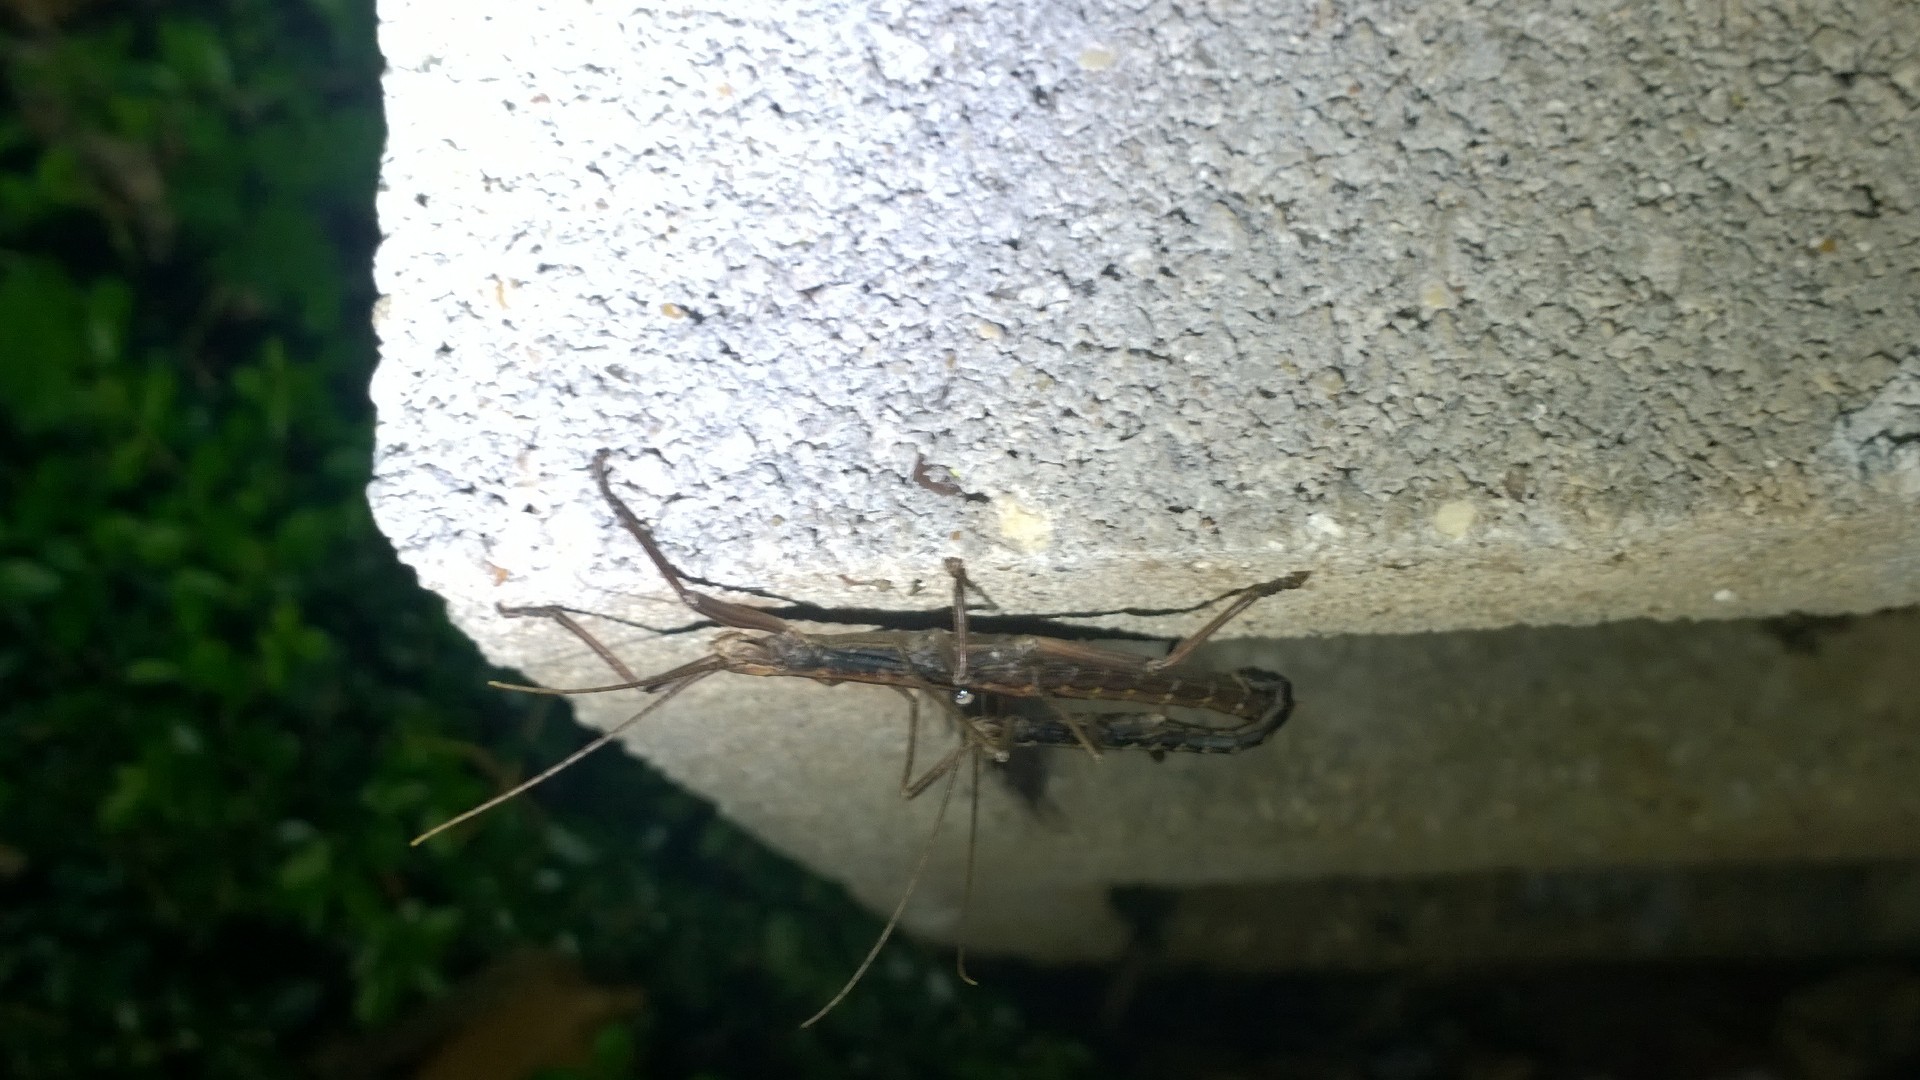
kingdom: Animalia
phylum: Arthropoda
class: Insecta
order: Phasmida
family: Pseudophasmatidae
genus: Anisomorpha
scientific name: Anisomorpha ferruginea
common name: Dark walkingstick
